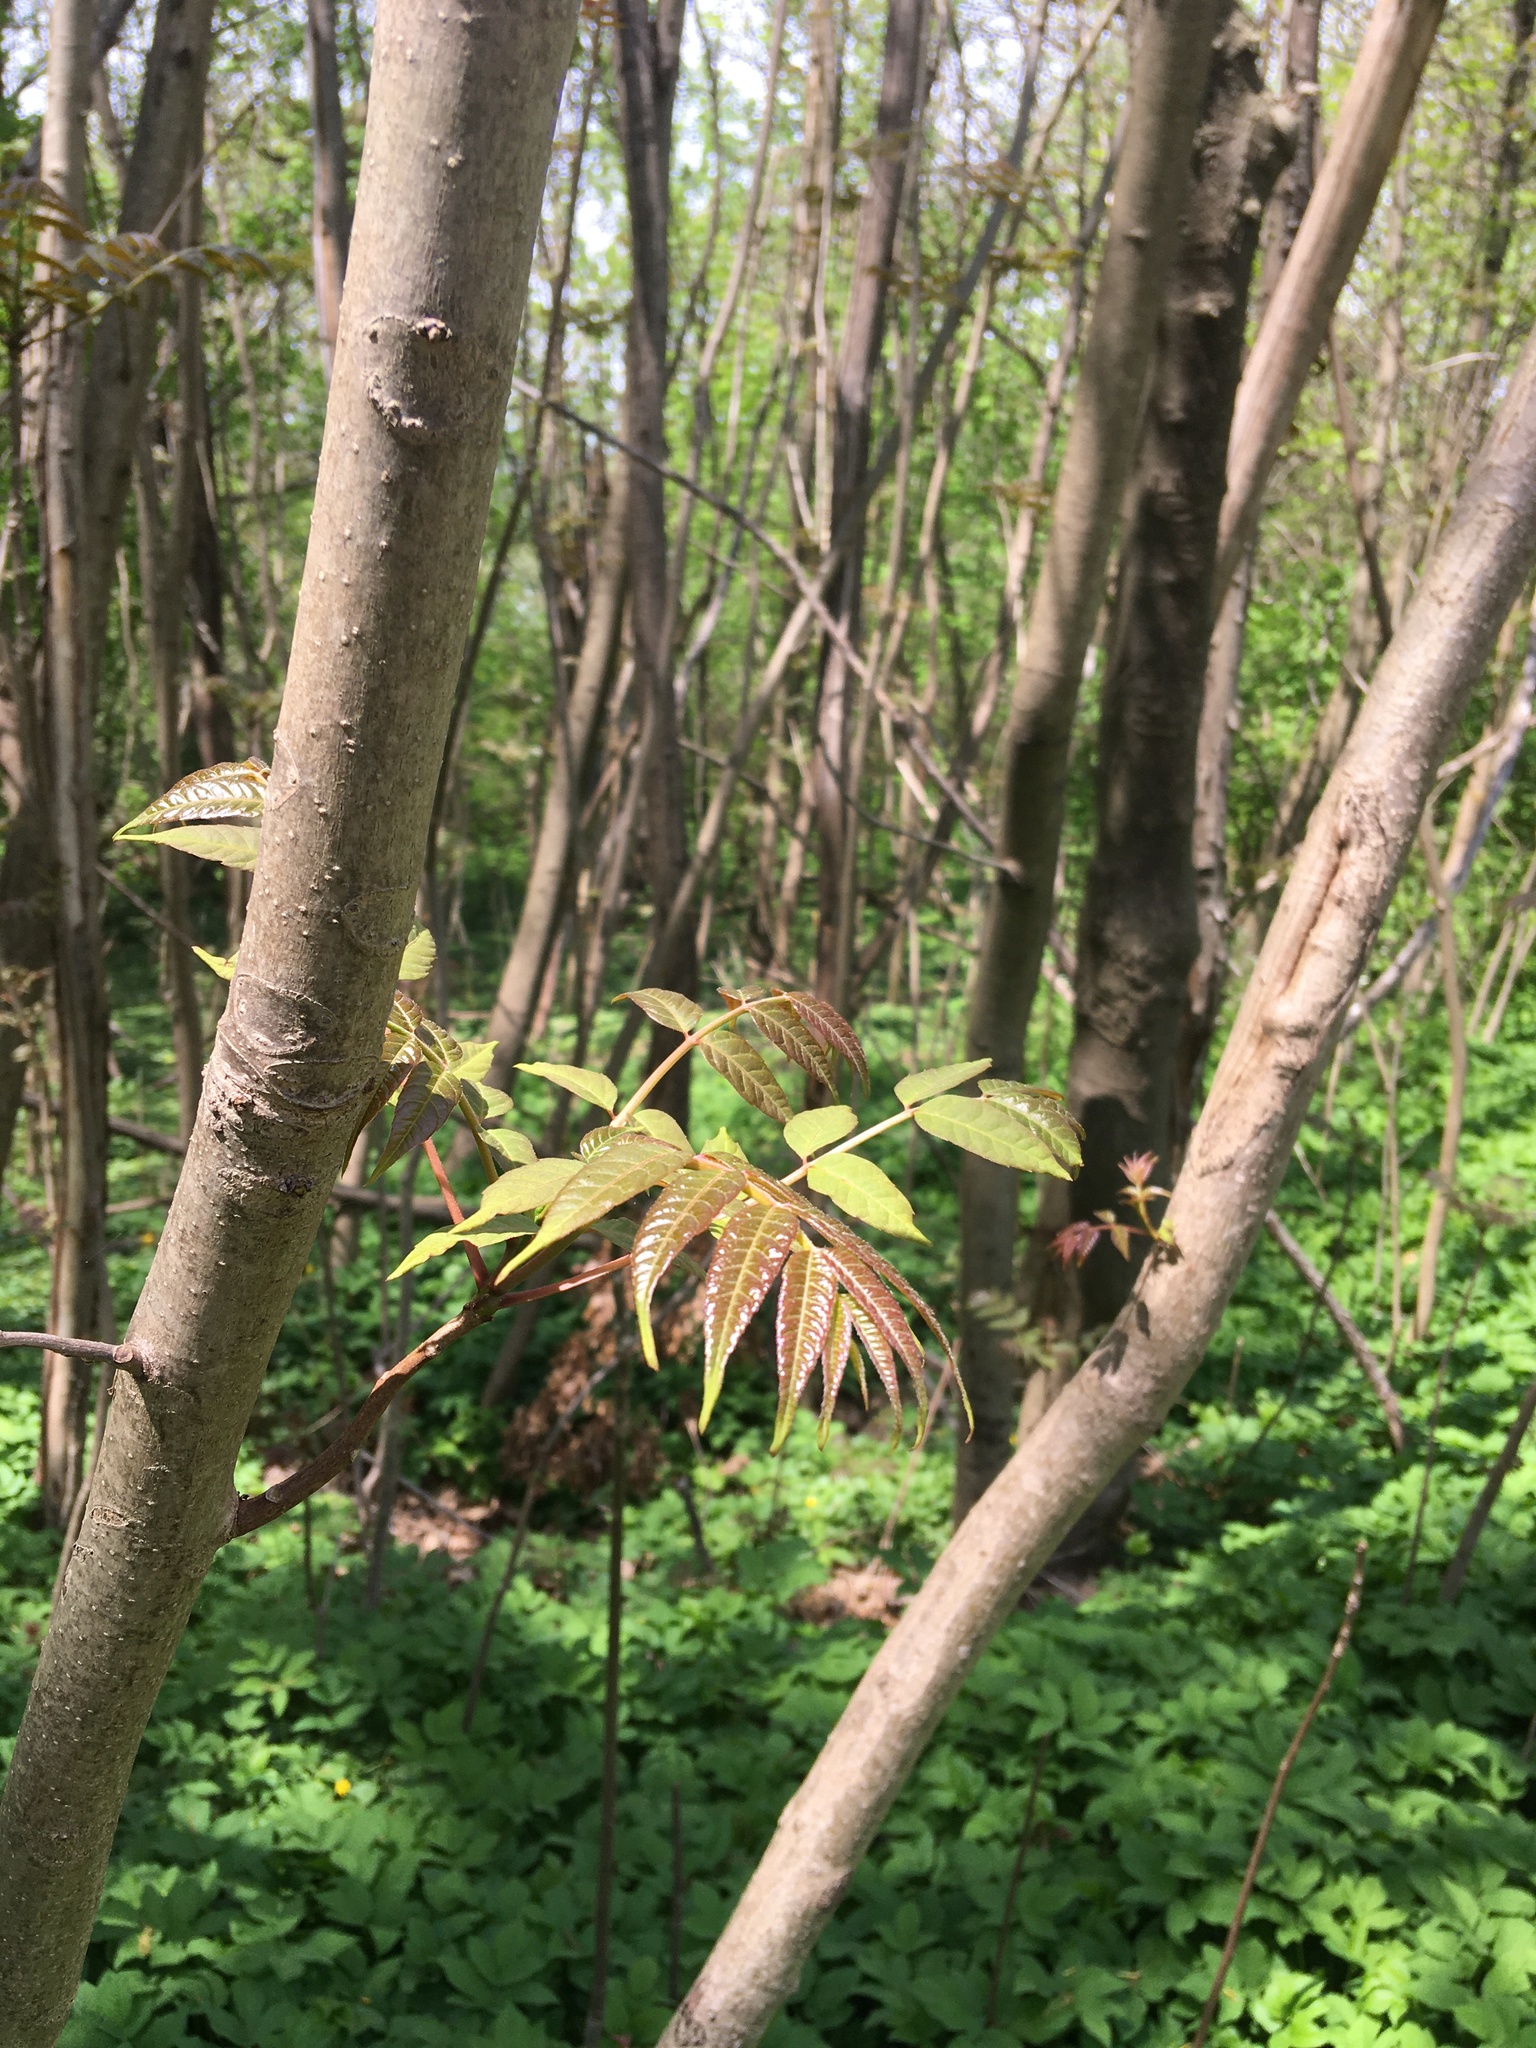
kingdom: Plantae
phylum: Tracheophyta
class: Magnoliopsida
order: Sapindales
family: Meliaceae
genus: Toona
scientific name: Toona sinensis
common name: Red toon
